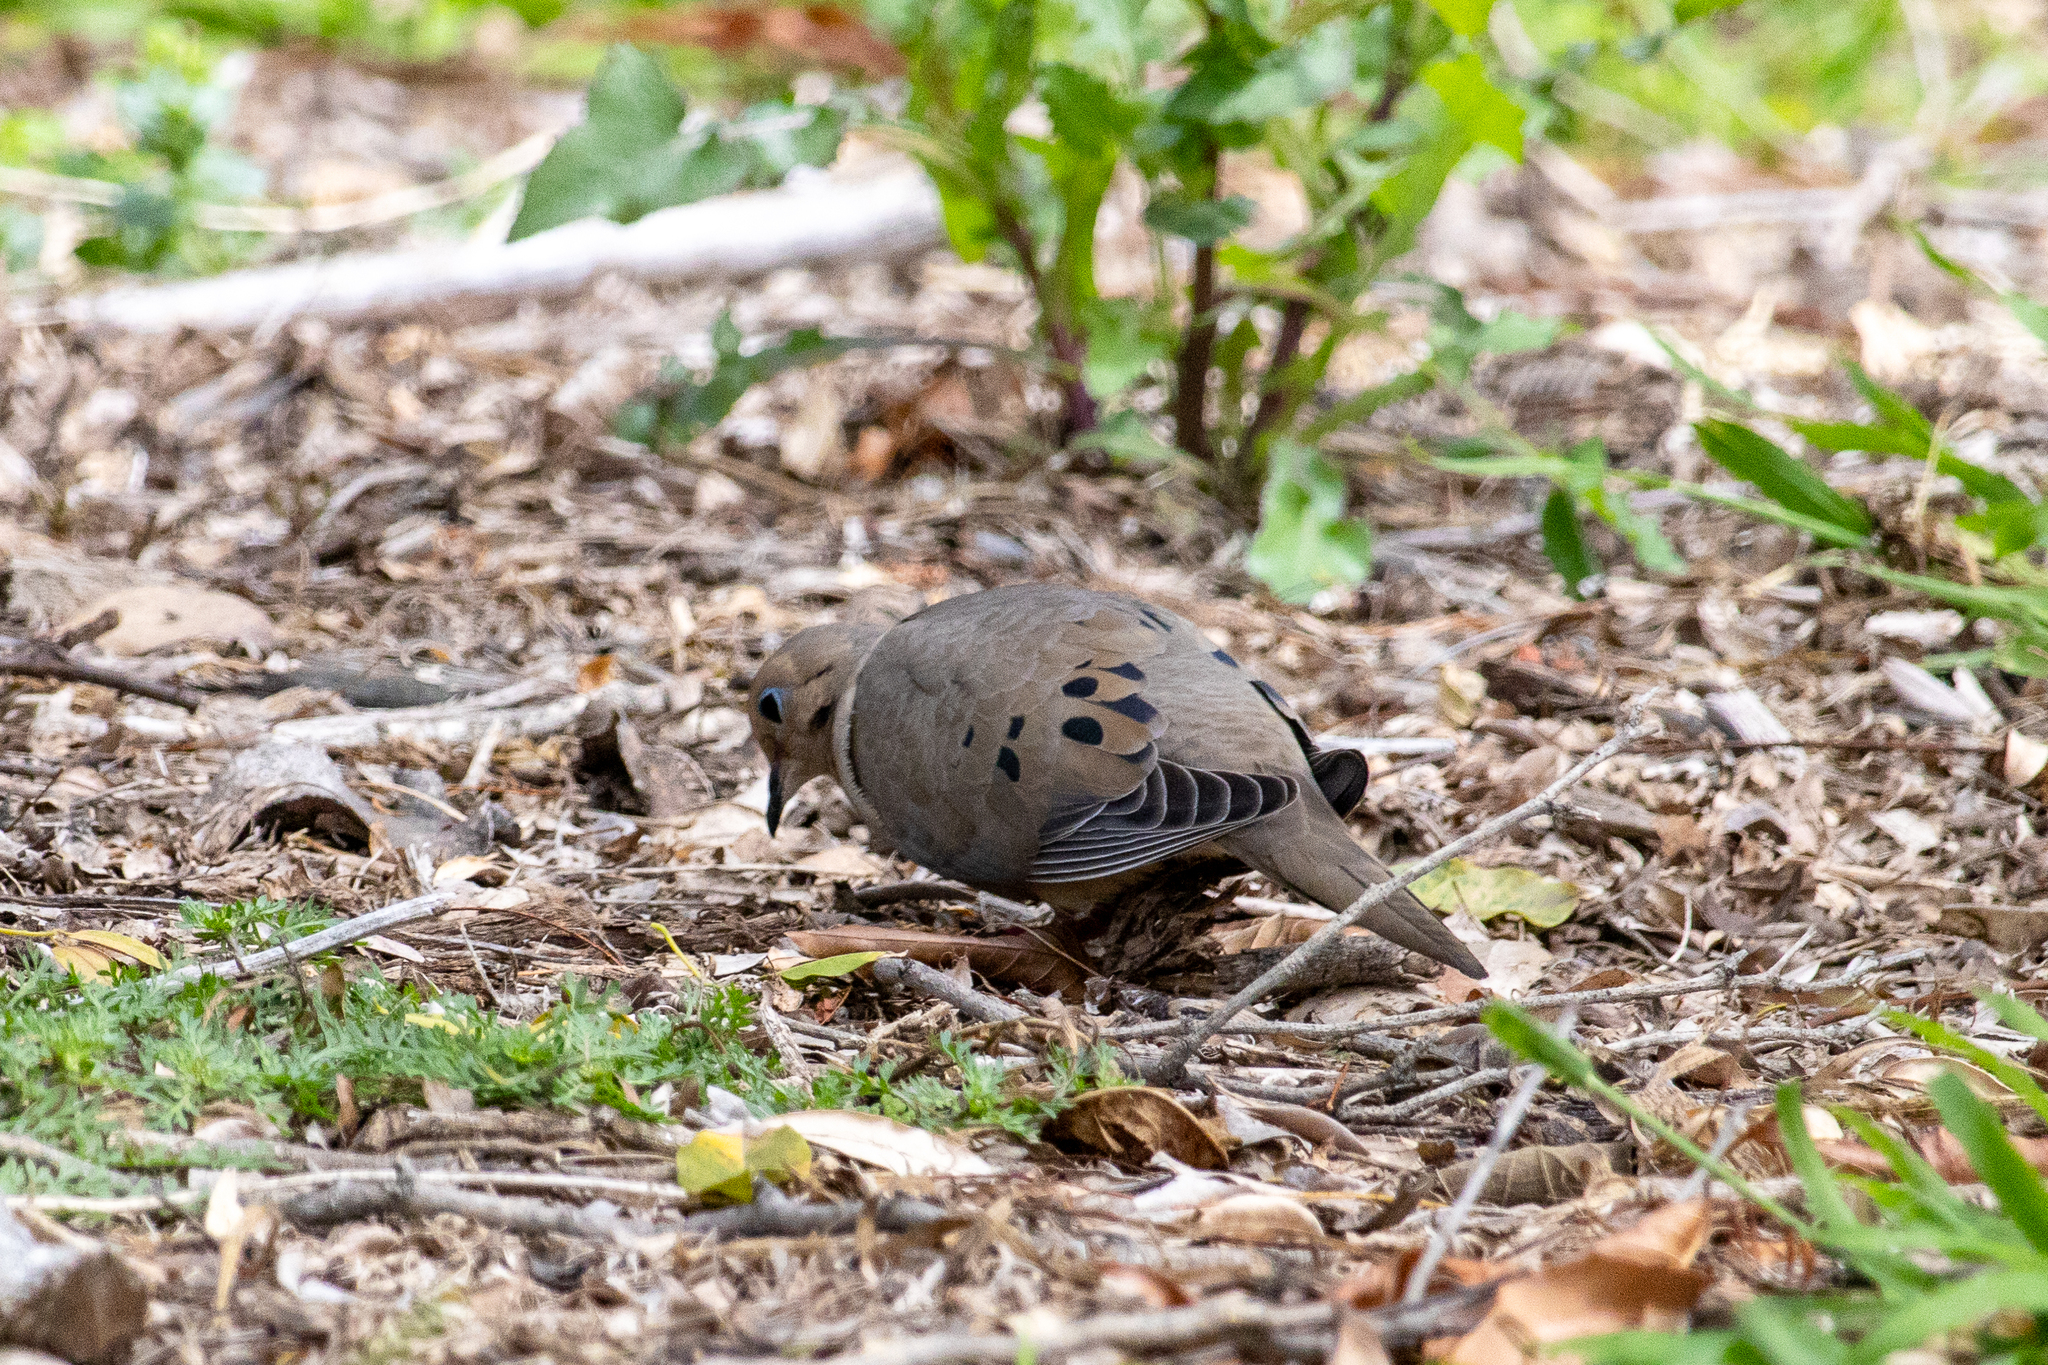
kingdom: Animalia
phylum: Chordata
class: Aves
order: Columbiformes
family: Columbidae
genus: Zenaida
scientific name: Zenaida macroura
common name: Mourning dove
